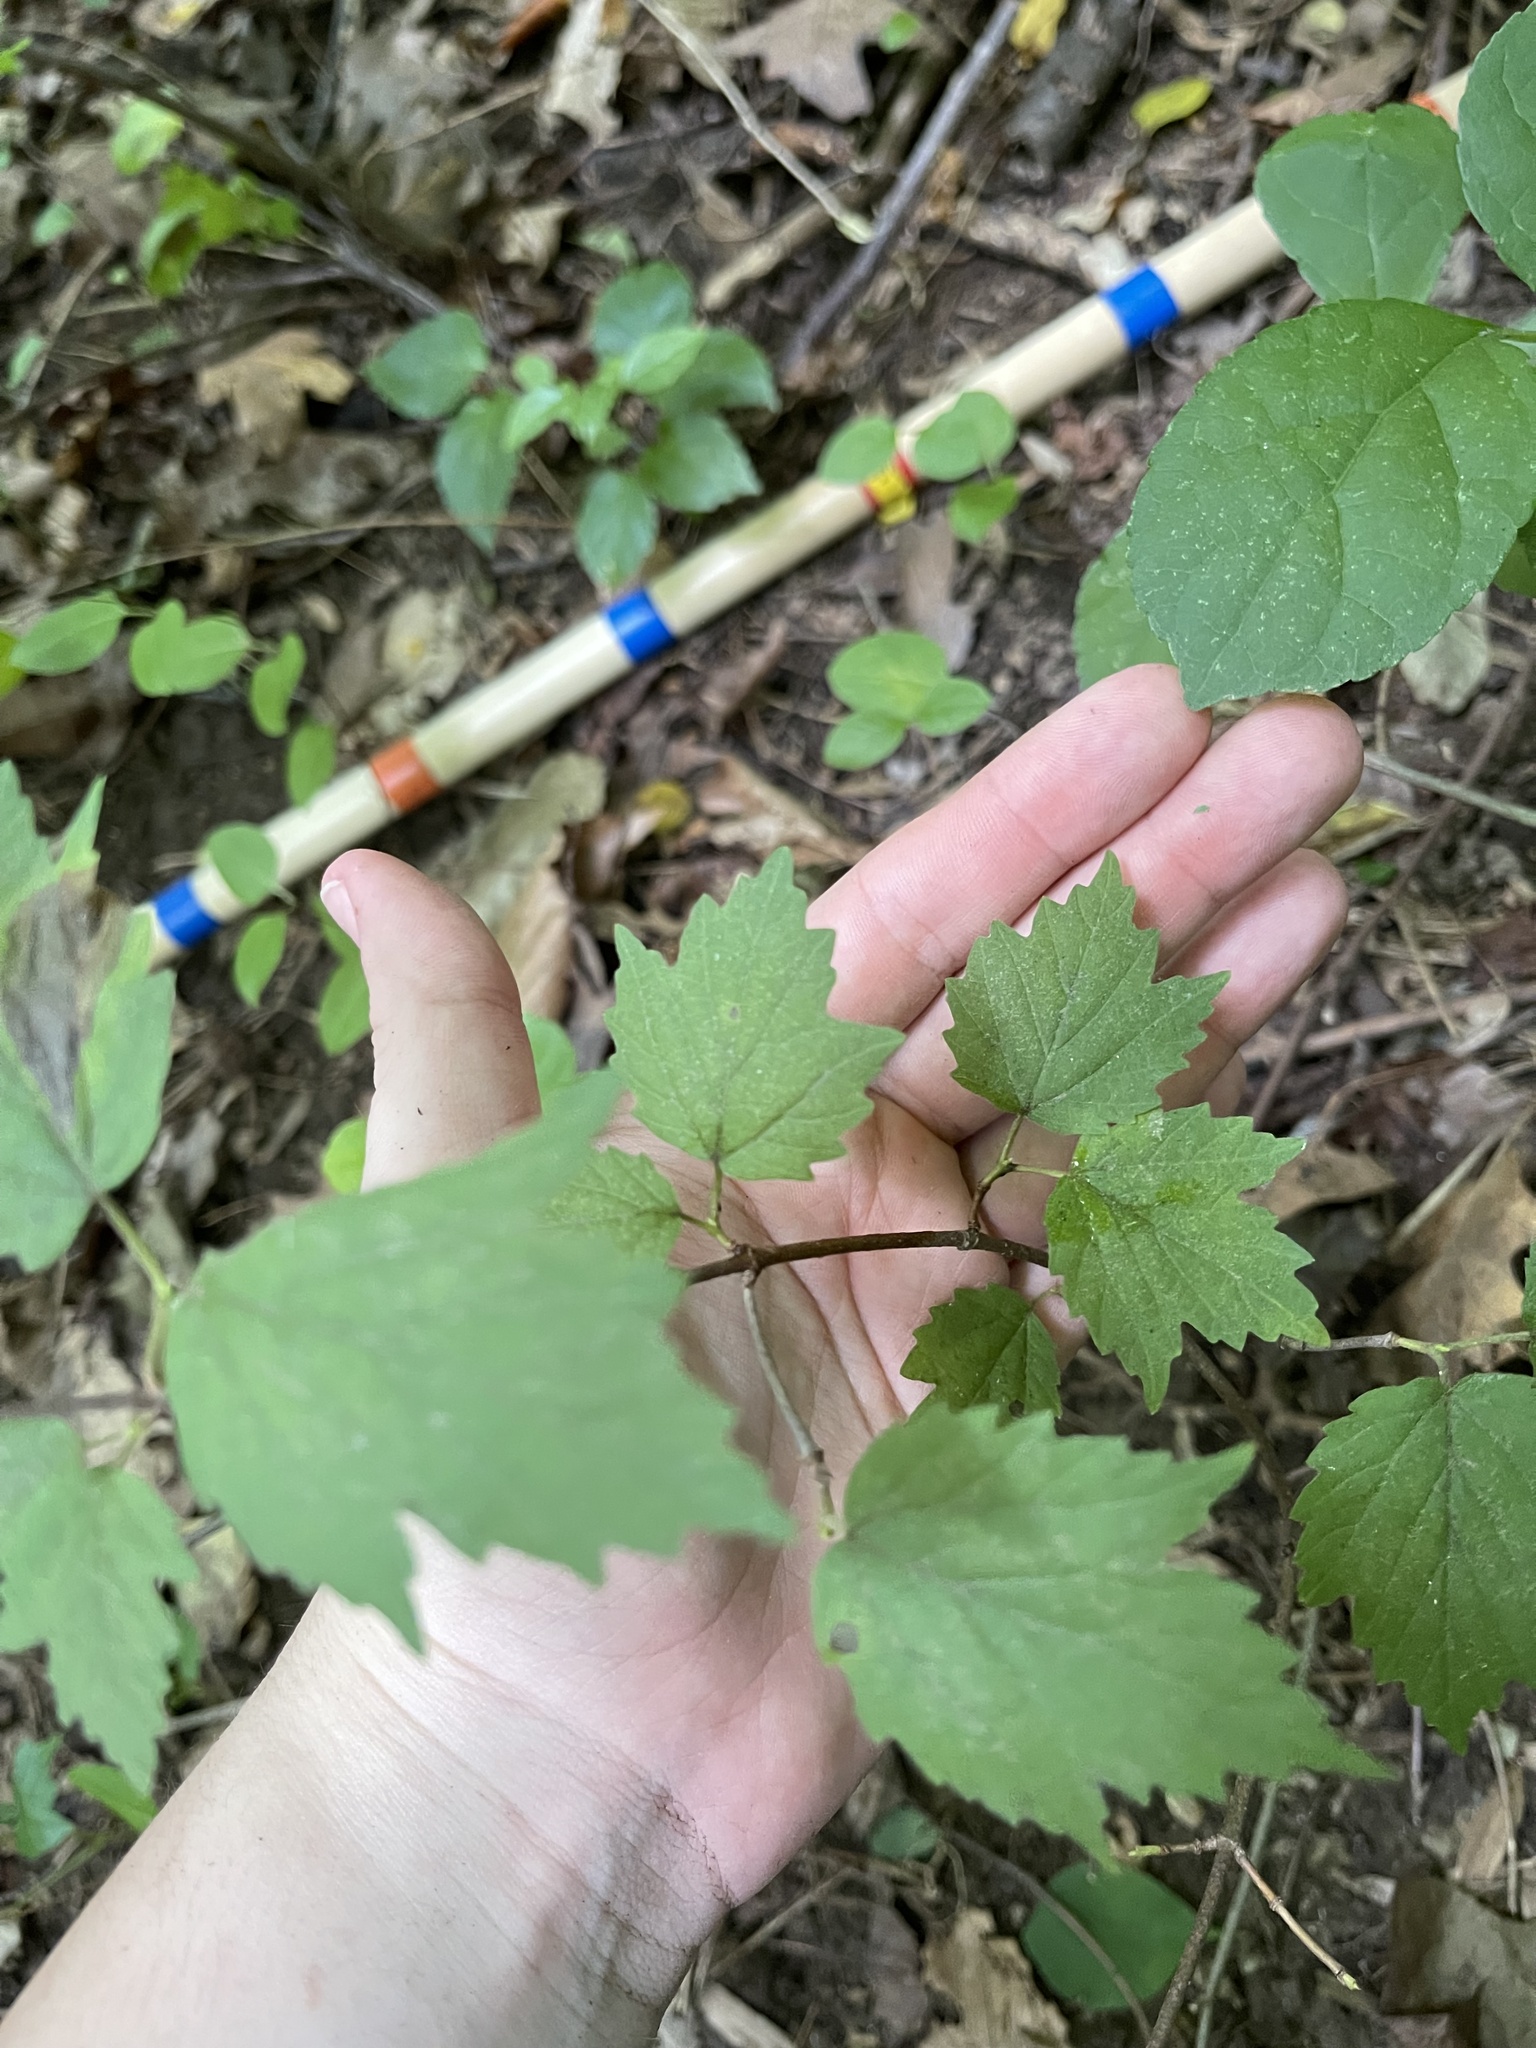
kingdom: Plantae
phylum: Tracheophyta
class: Magnoliopsida
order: Dipsacales
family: Viburnaceae
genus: Viburnum
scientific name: Viburnum acerifolium
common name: Dockmackie
